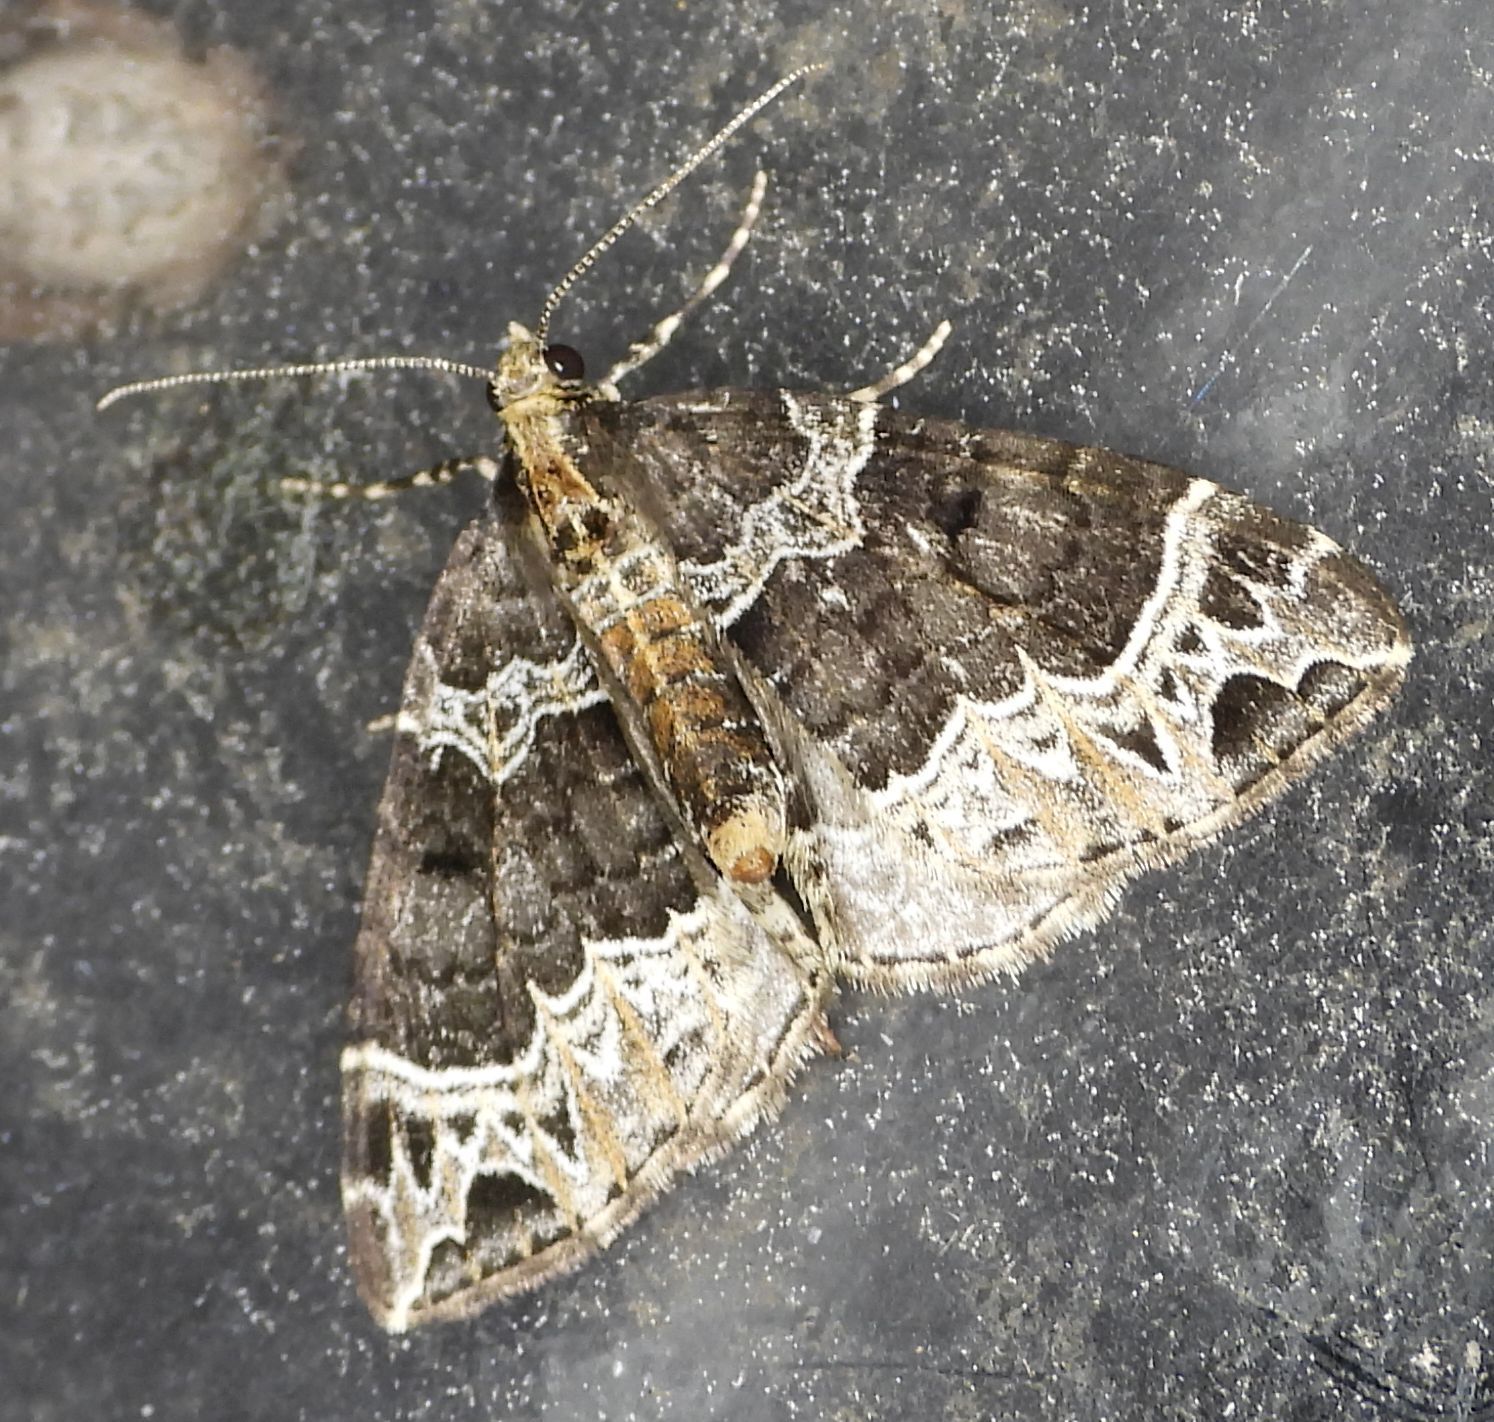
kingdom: Animalia
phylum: Arthropoda
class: Insecta
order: Lepidoptera
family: Geometridae
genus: Ecliptopera
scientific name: Ecliptopera silaceata
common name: Small phoenix
